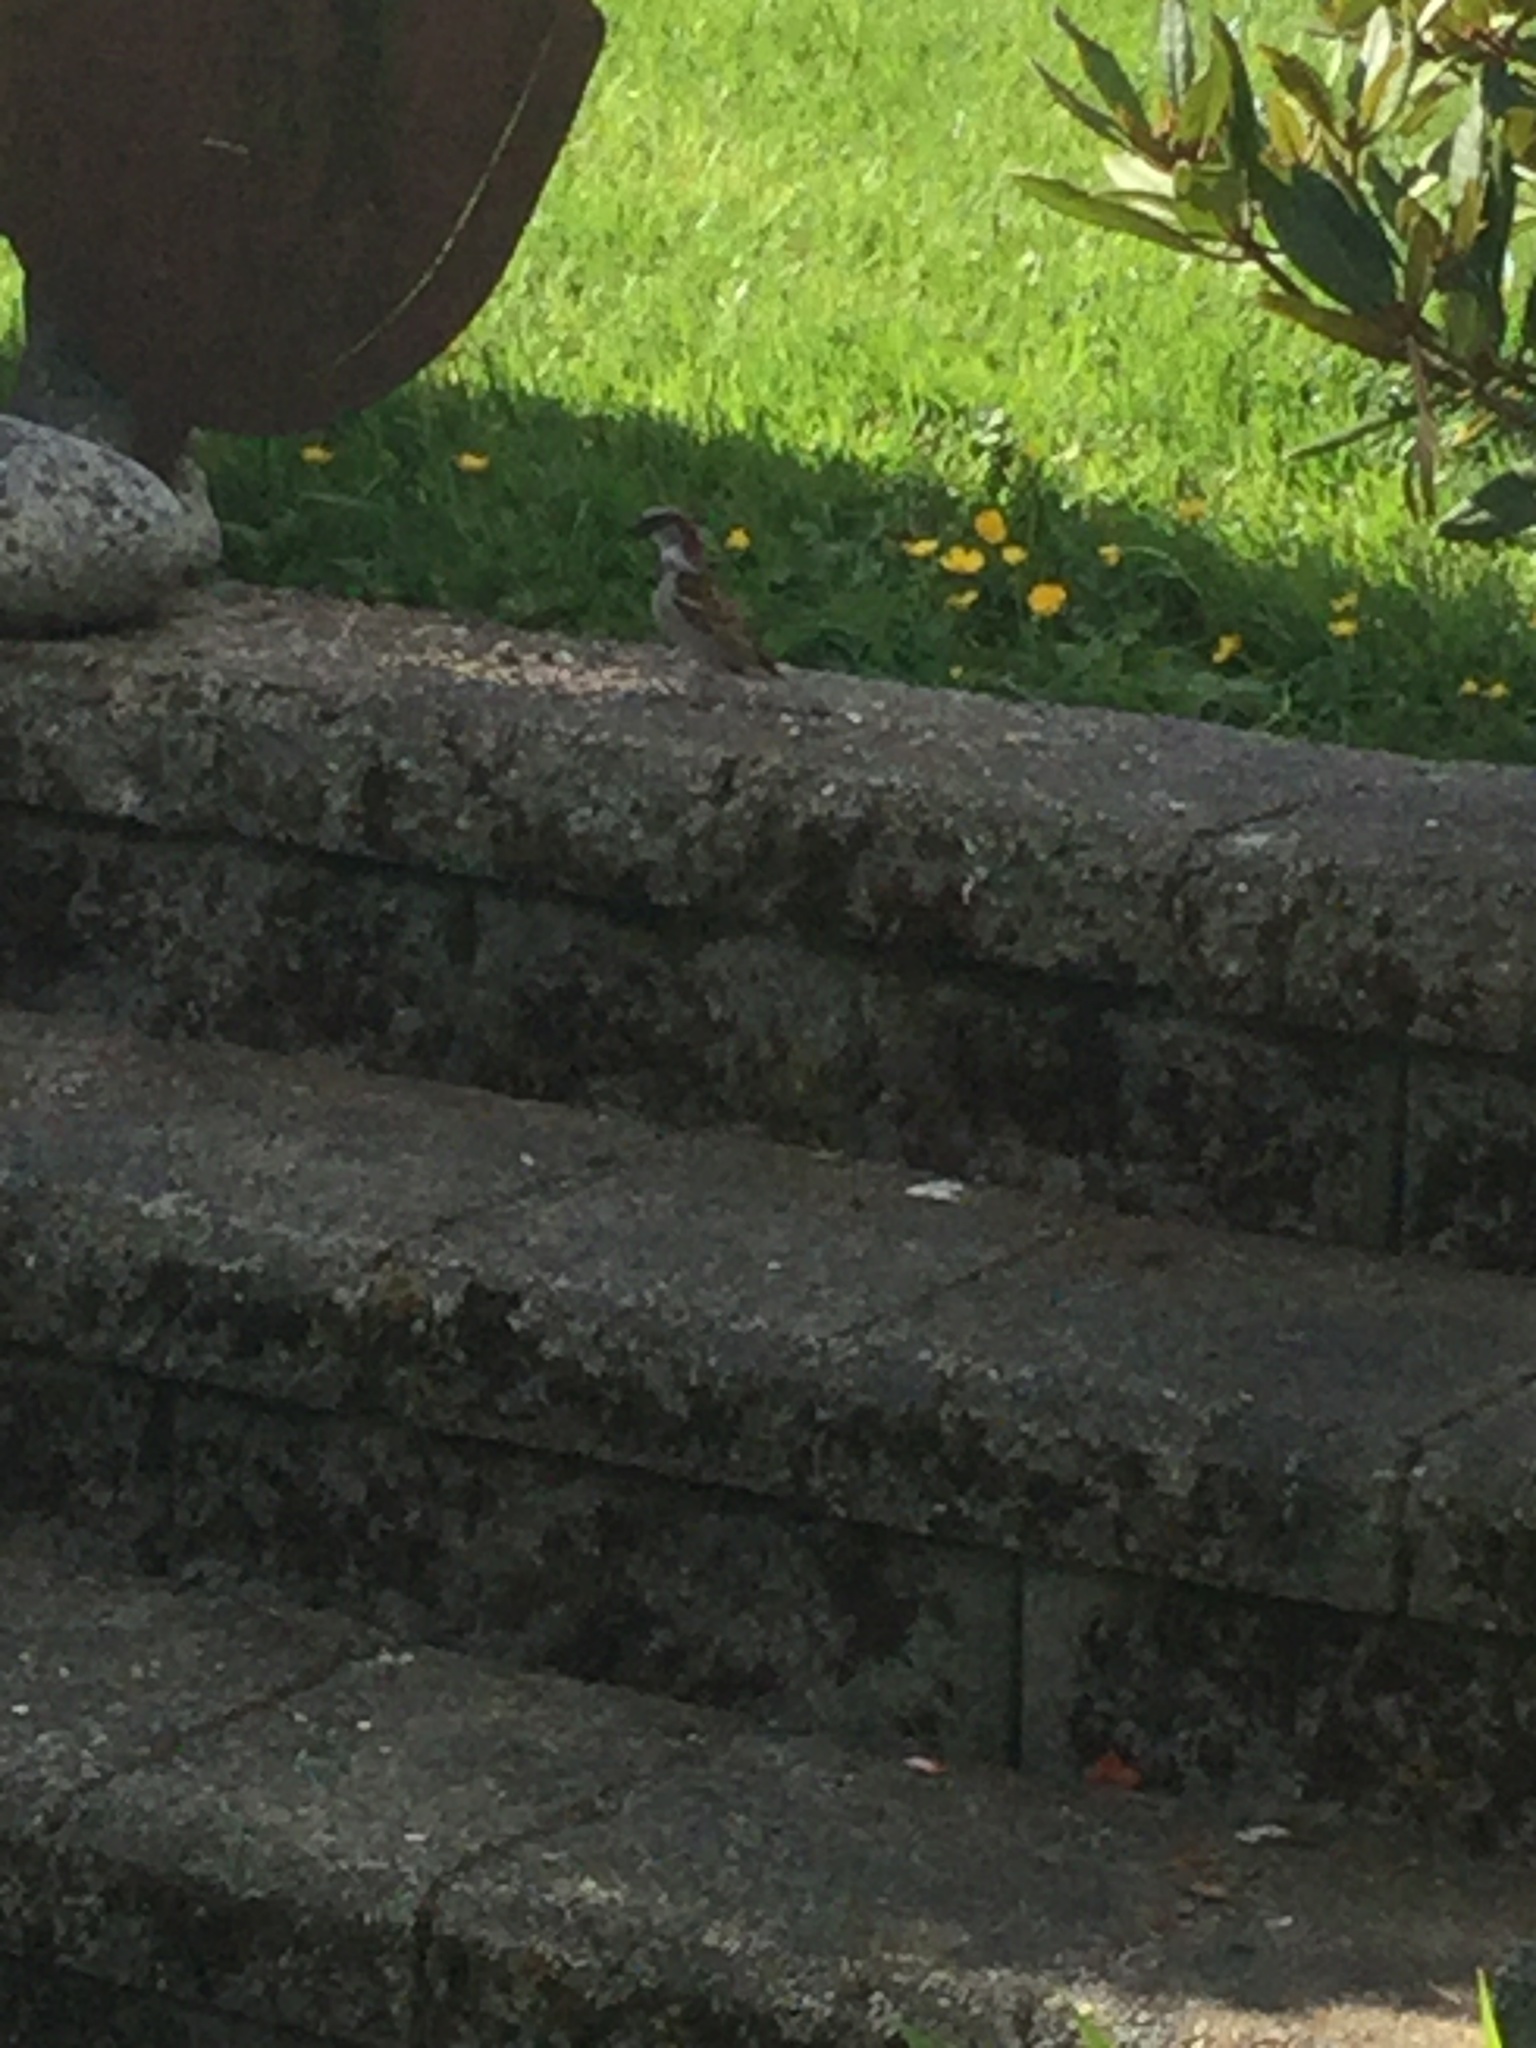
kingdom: Animalia
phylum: Chordata
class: Aves
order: Passeriformes
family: Passeridae
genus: Passer
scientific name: Passer domesticus
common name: House sparrow
